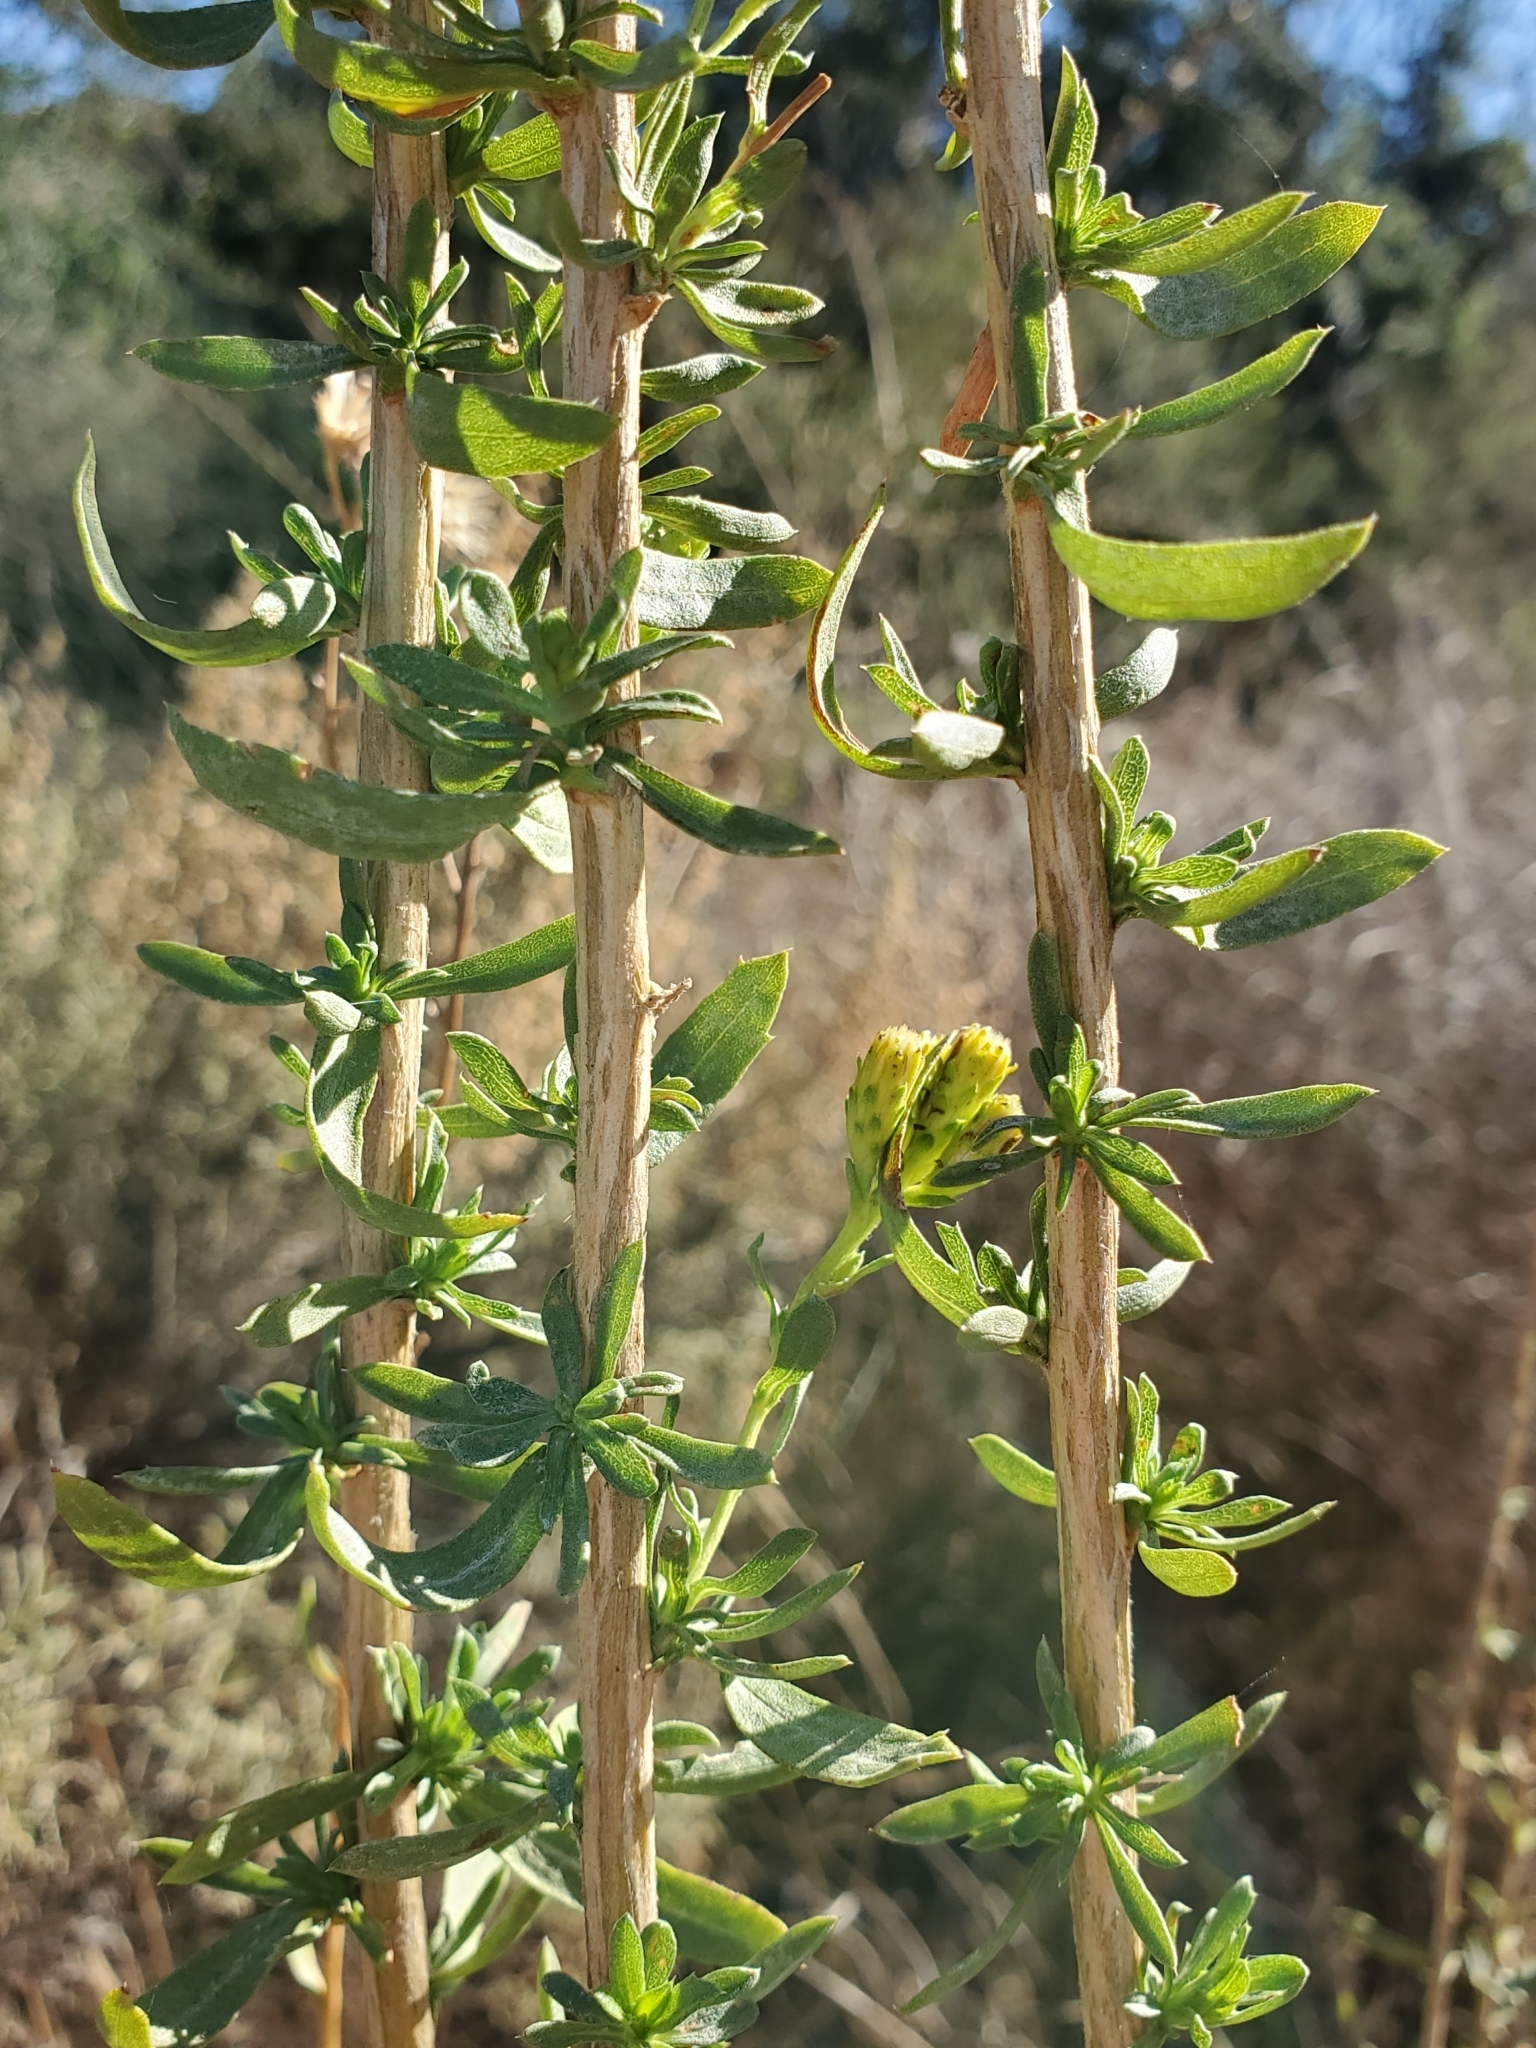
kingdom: Plantae
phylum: Tracheophyta
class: Magnoliopsida
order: Asterales
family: Asteraceae
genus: Isocoma
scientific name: Isocoma menziesii
